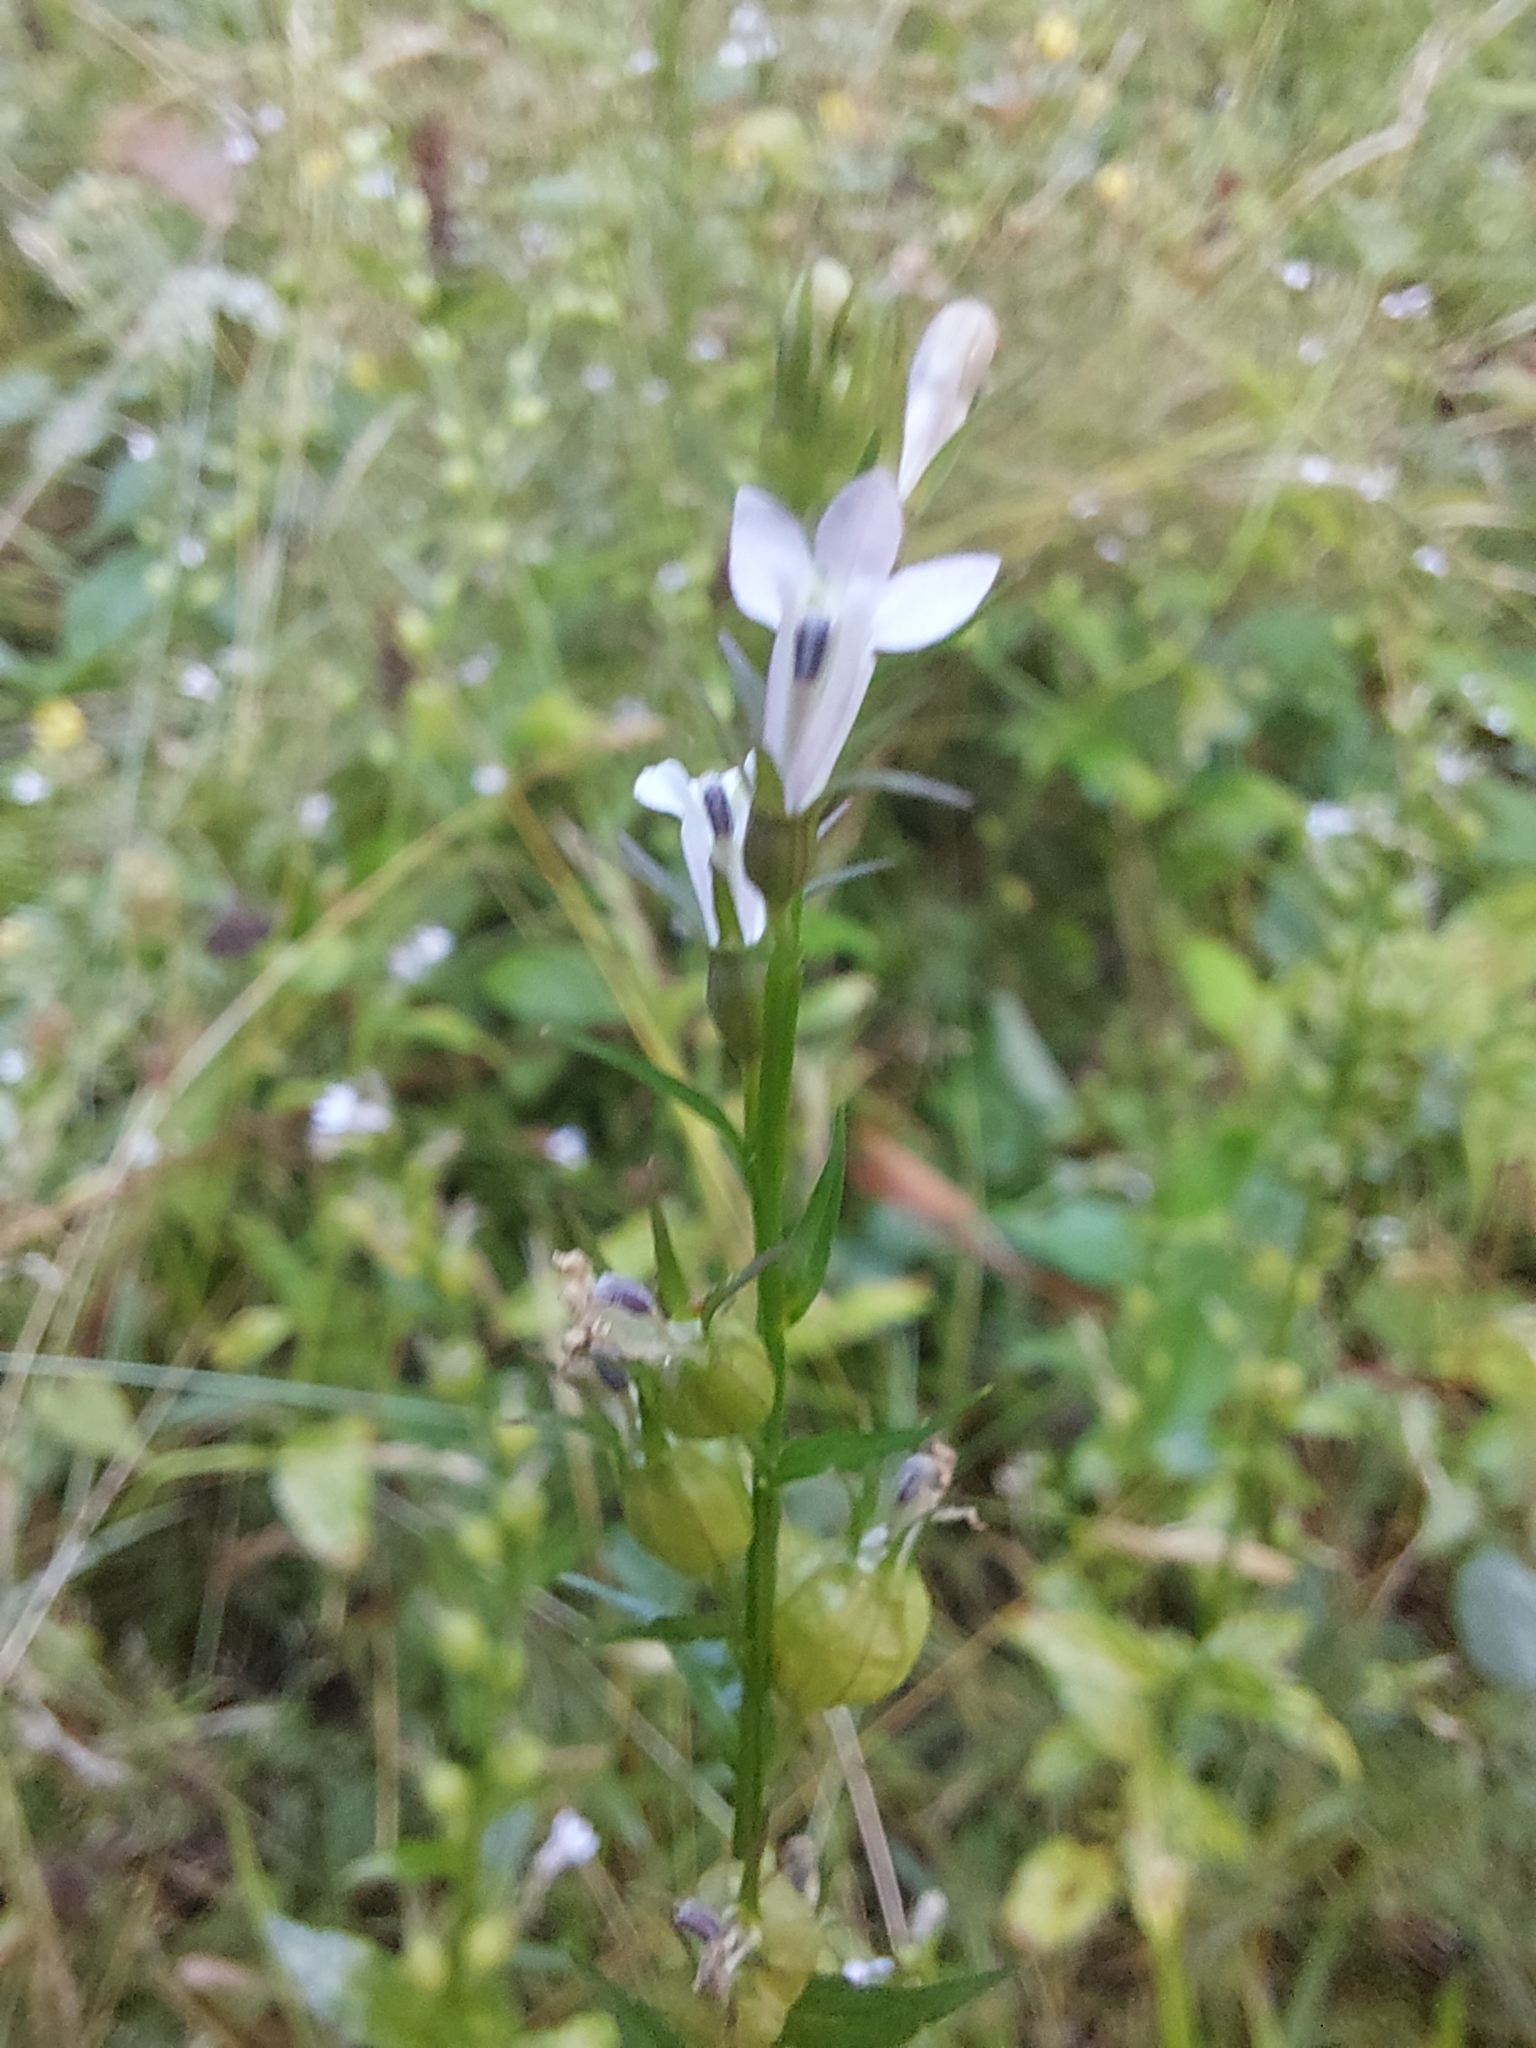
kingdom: Plantae
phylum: Tracheophyta
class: Magnoliopsida
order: Asterales
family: Campanulaceae
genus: Lobelia
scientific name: Lobelia inflata
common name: Indian tobacco
